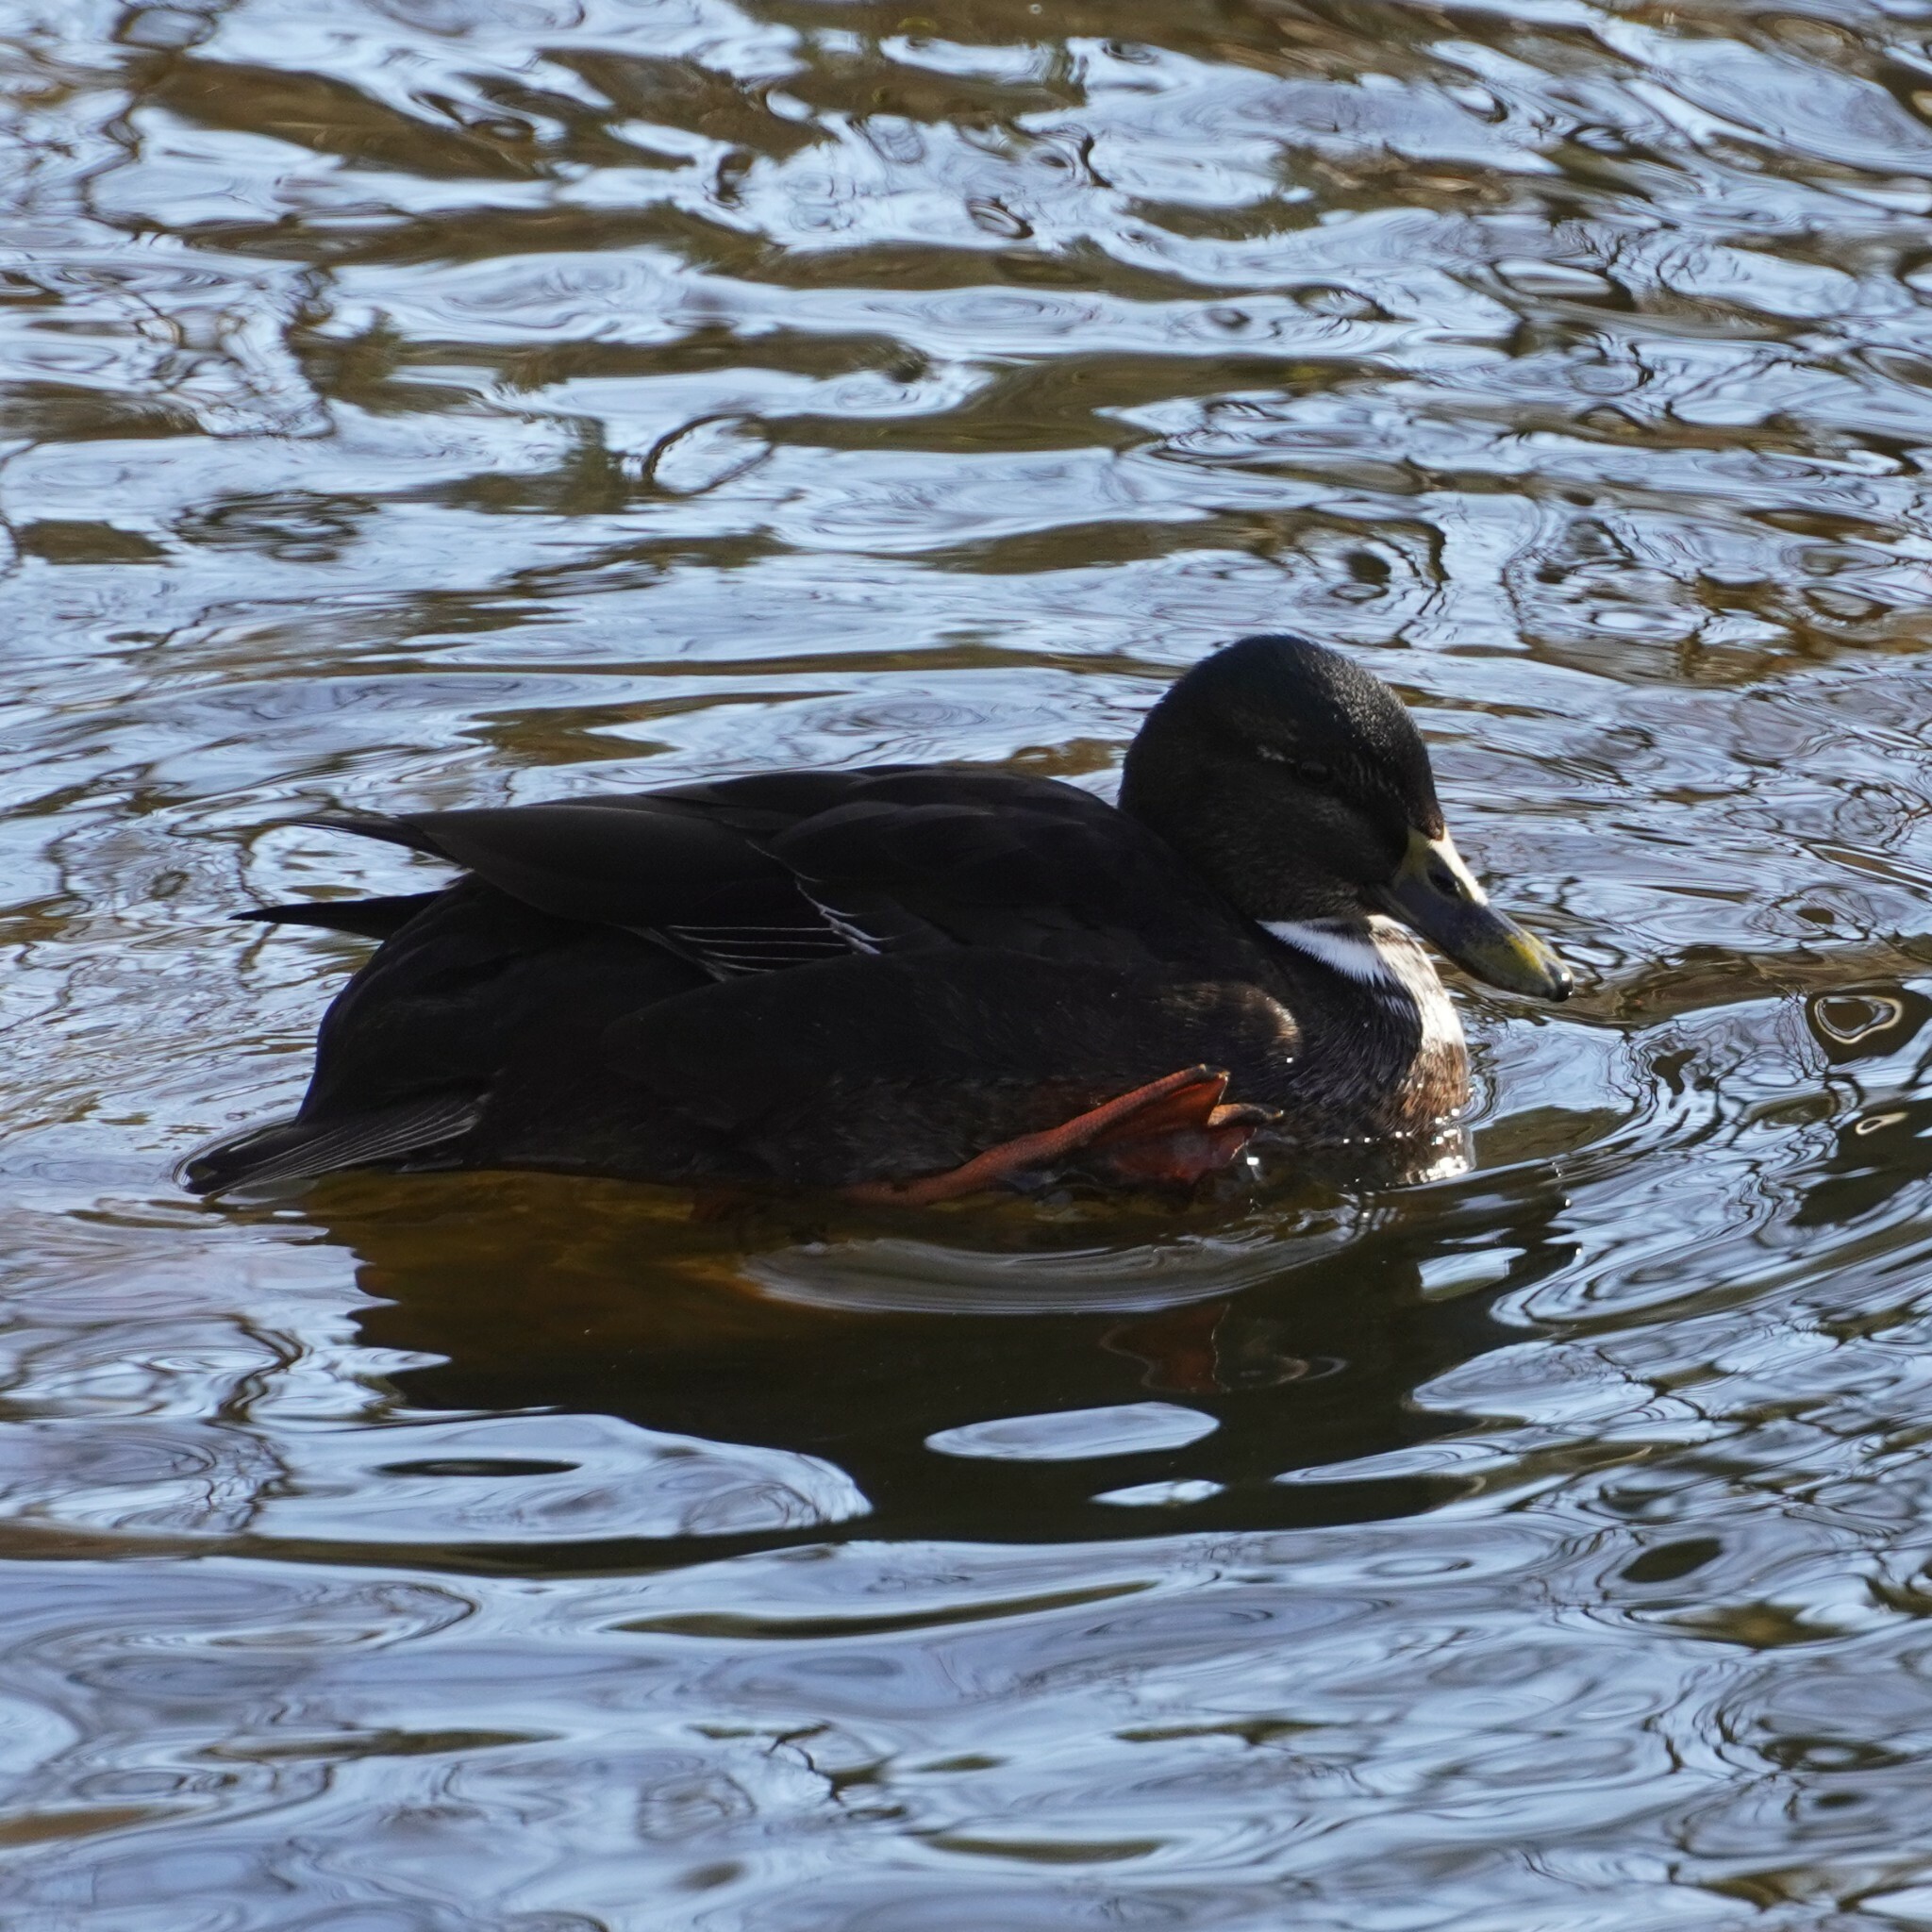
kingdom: Animalia
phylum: Chordata
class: Aves
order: Anseriformes
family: Anatidae
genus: Anas
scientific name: Anas platyrhynchos
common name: Mallard
